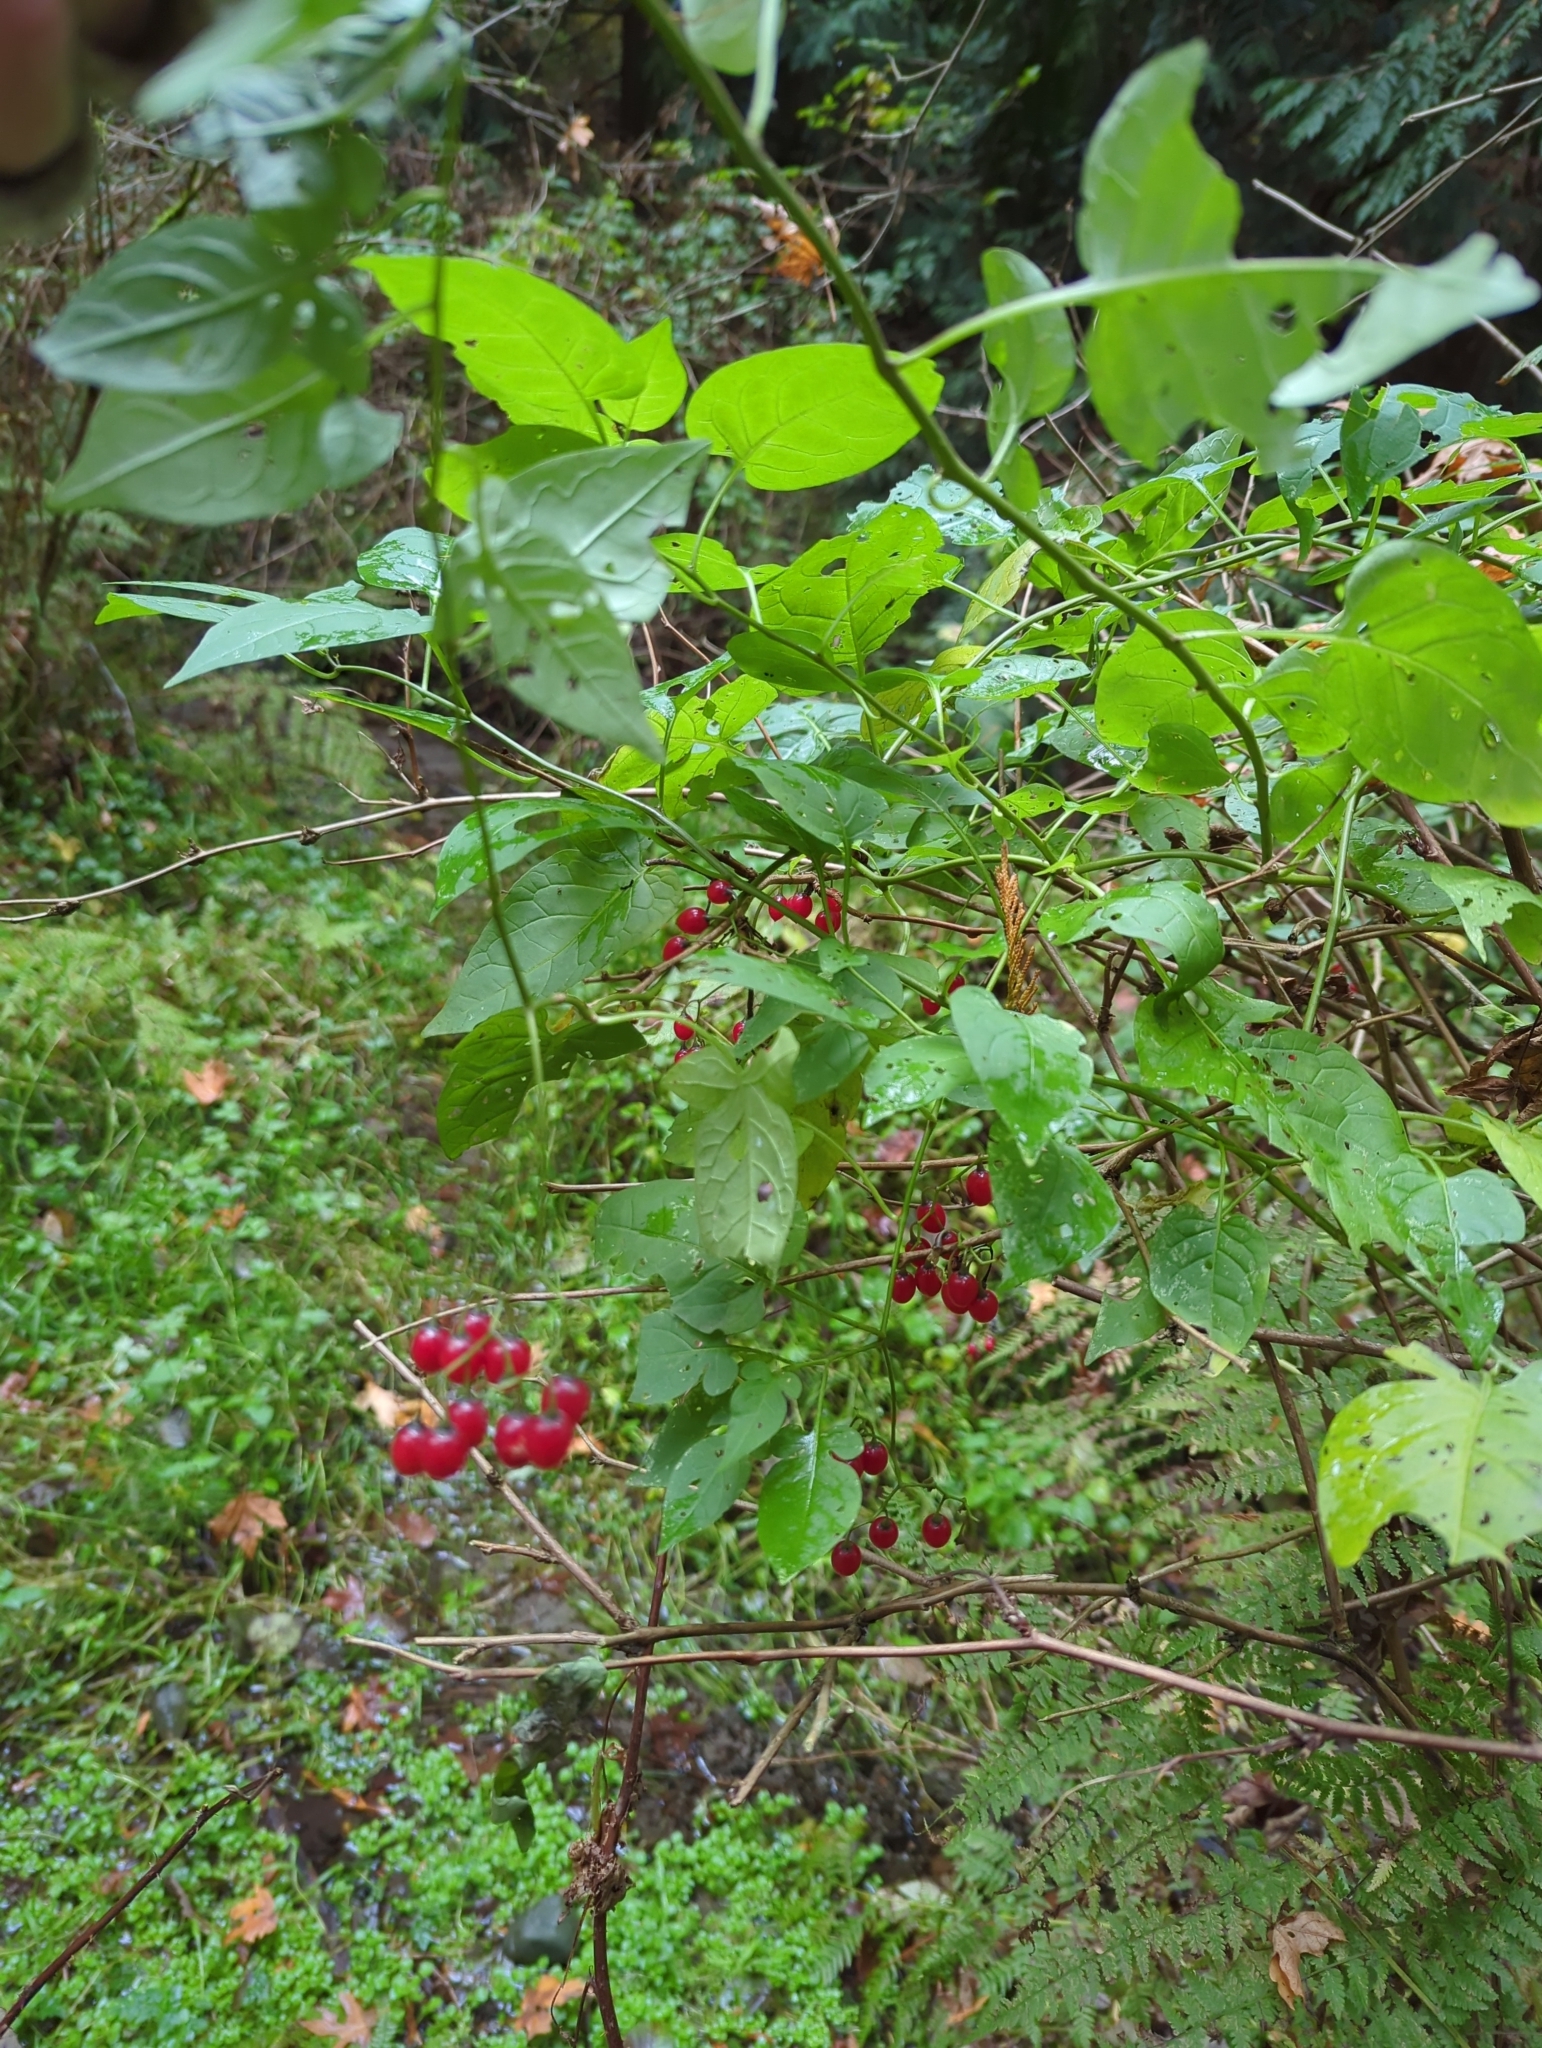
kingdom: Plantae
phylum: Tracheophyta
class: Magnoliopsida
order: Solanales
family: Solanaceae
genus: Solanum
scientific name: Solanum dulcamara
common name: Climbing nightshade
